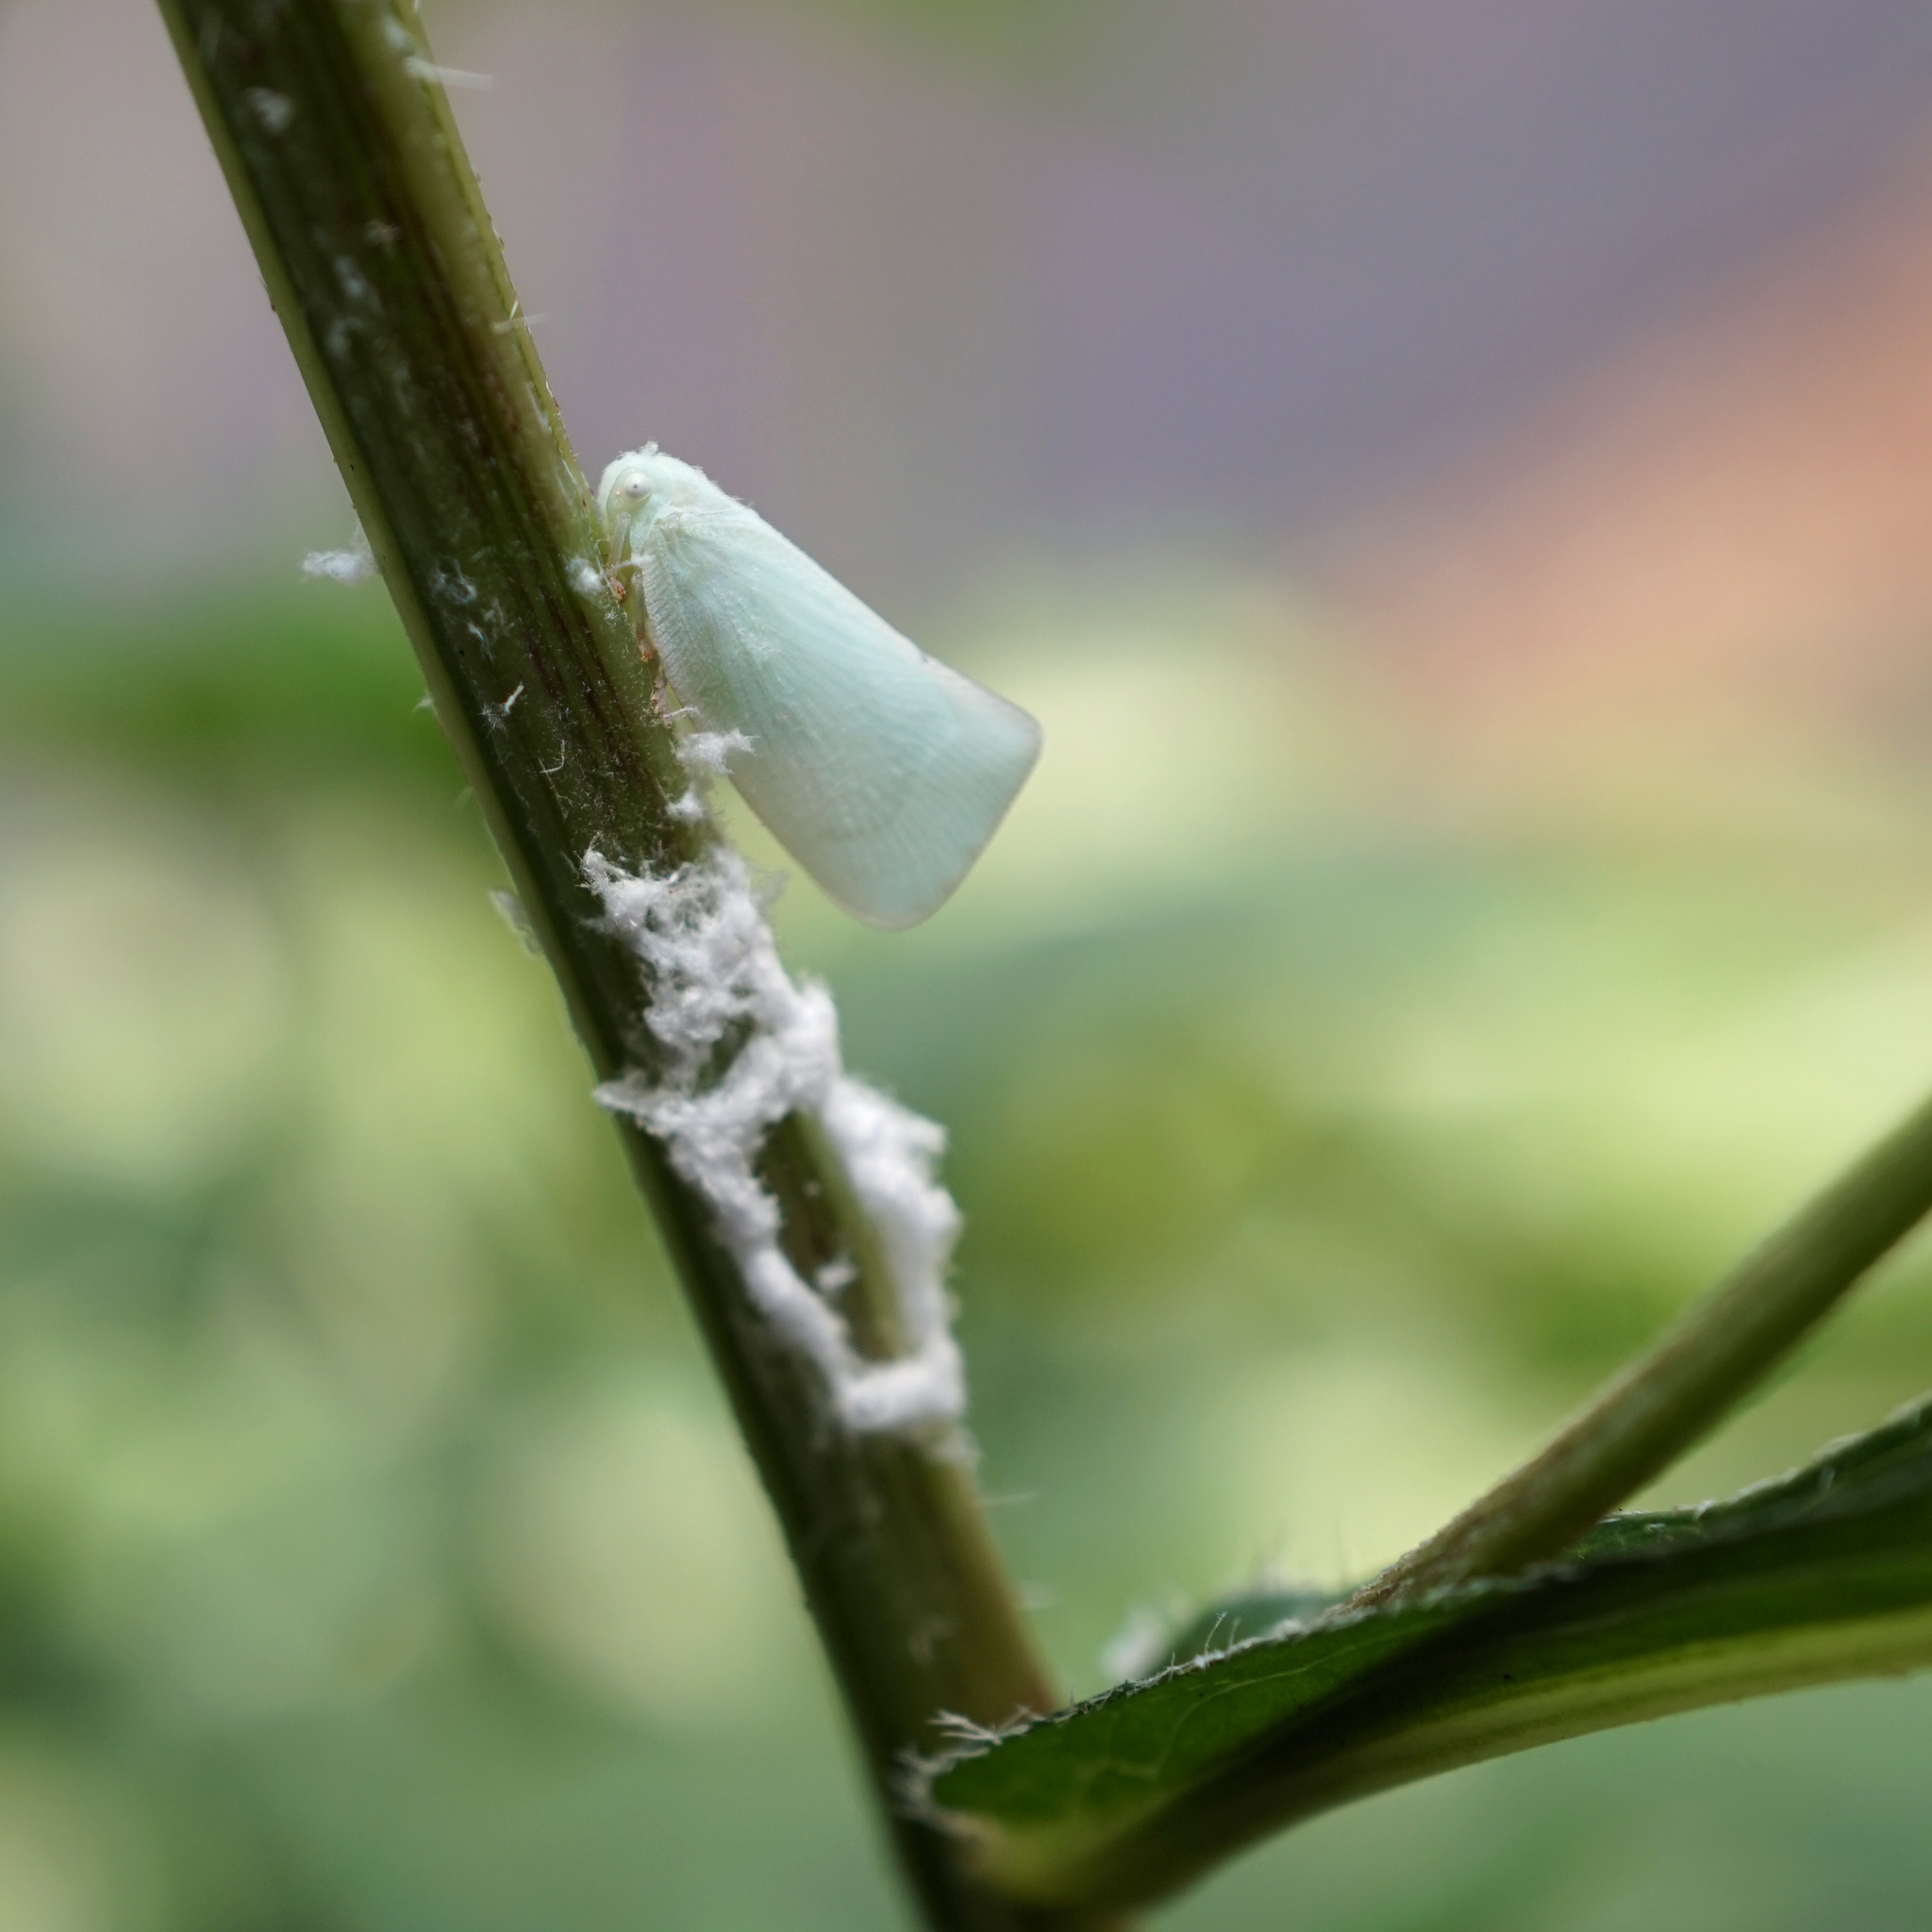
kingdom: Animalia
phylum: Arthropoda
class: Insecta
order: Hemiptera
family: Flatidae
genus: Flatormenis
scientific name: Flatormenis proxima
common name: Northern flatid planthopper
